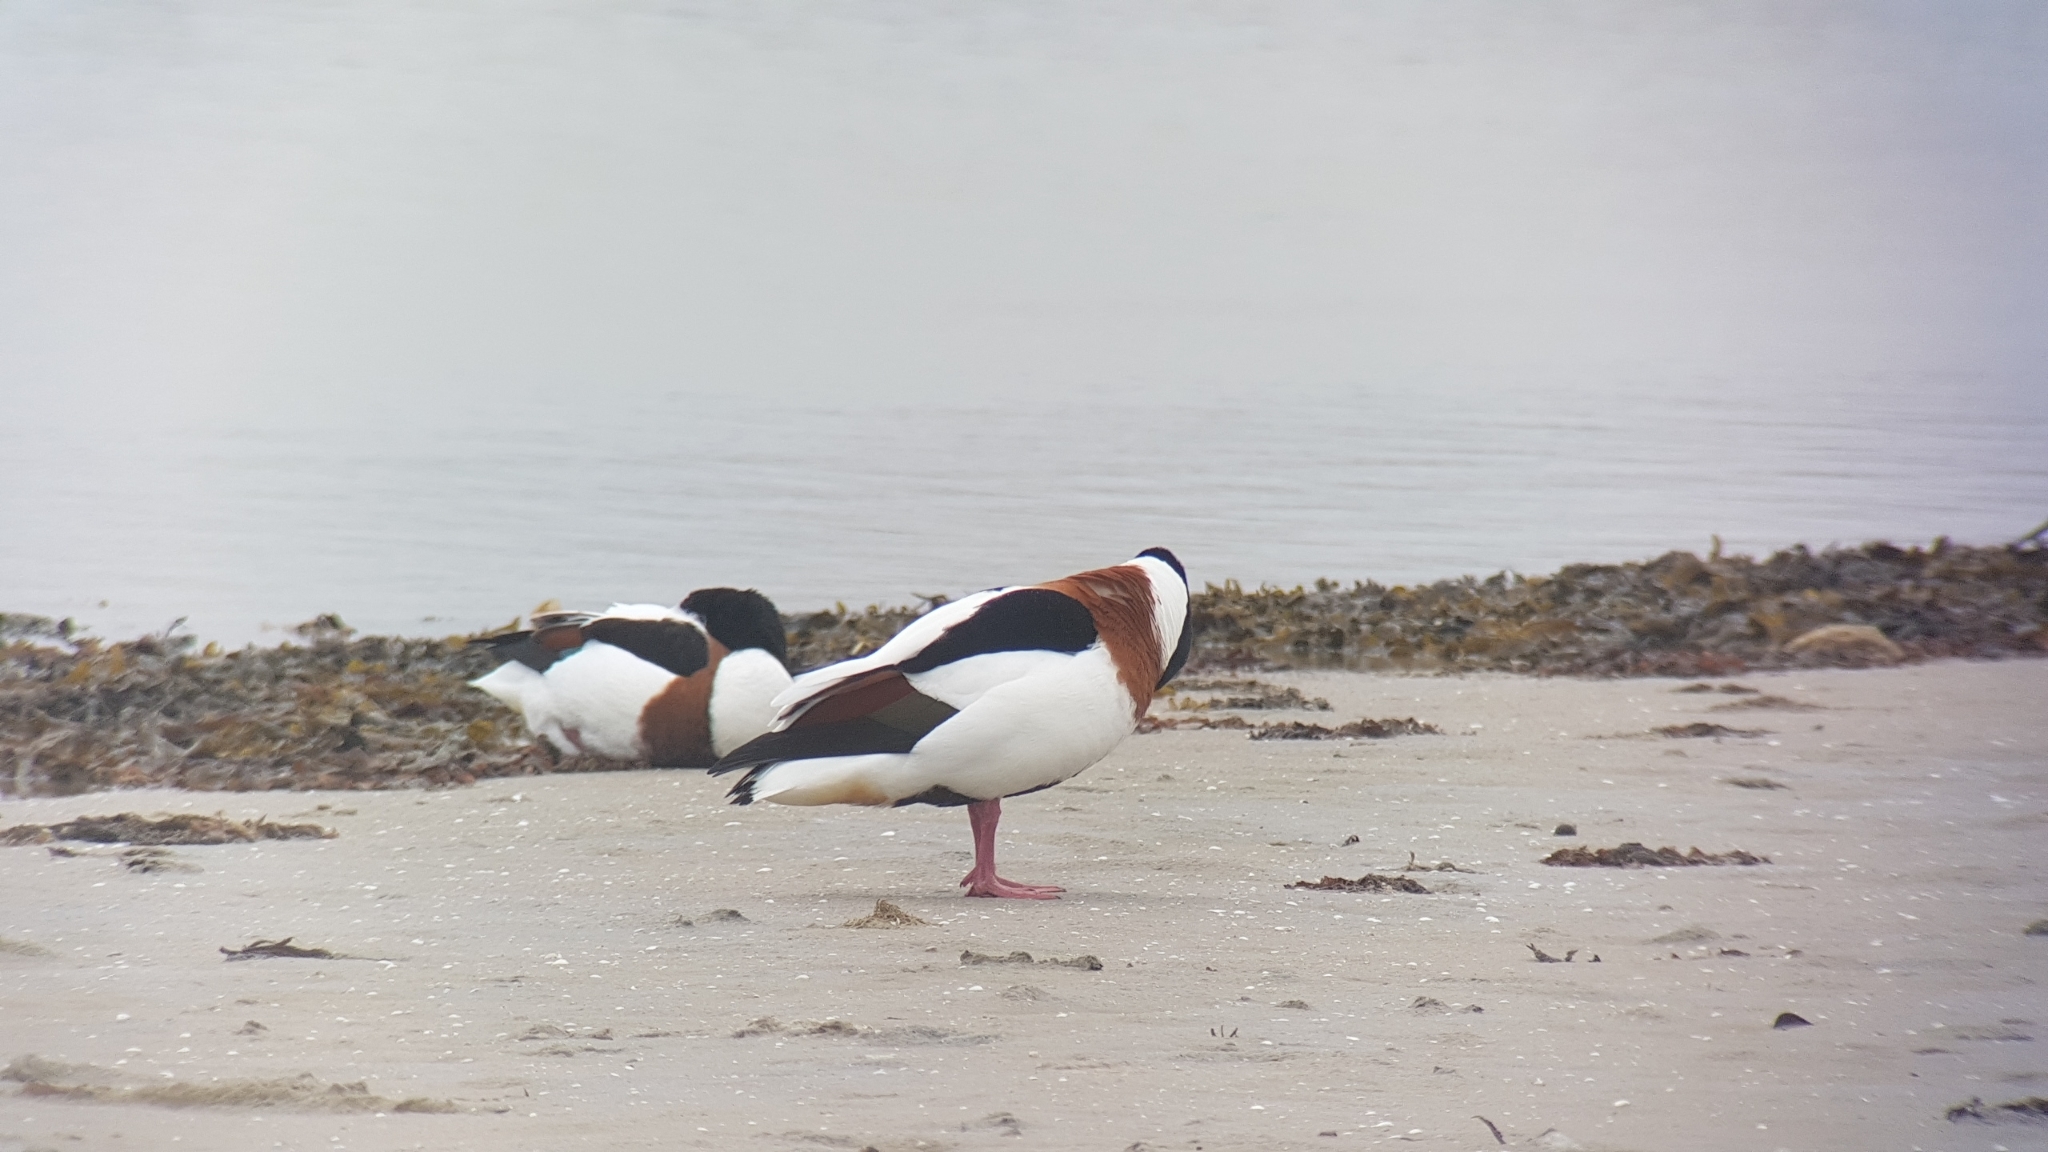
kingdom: Animalia
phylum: Chordata
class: Aves
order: Anseriformes
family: Anatidae
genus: Tadorna
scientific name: Tadorna tadorna
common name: Common shelduck
